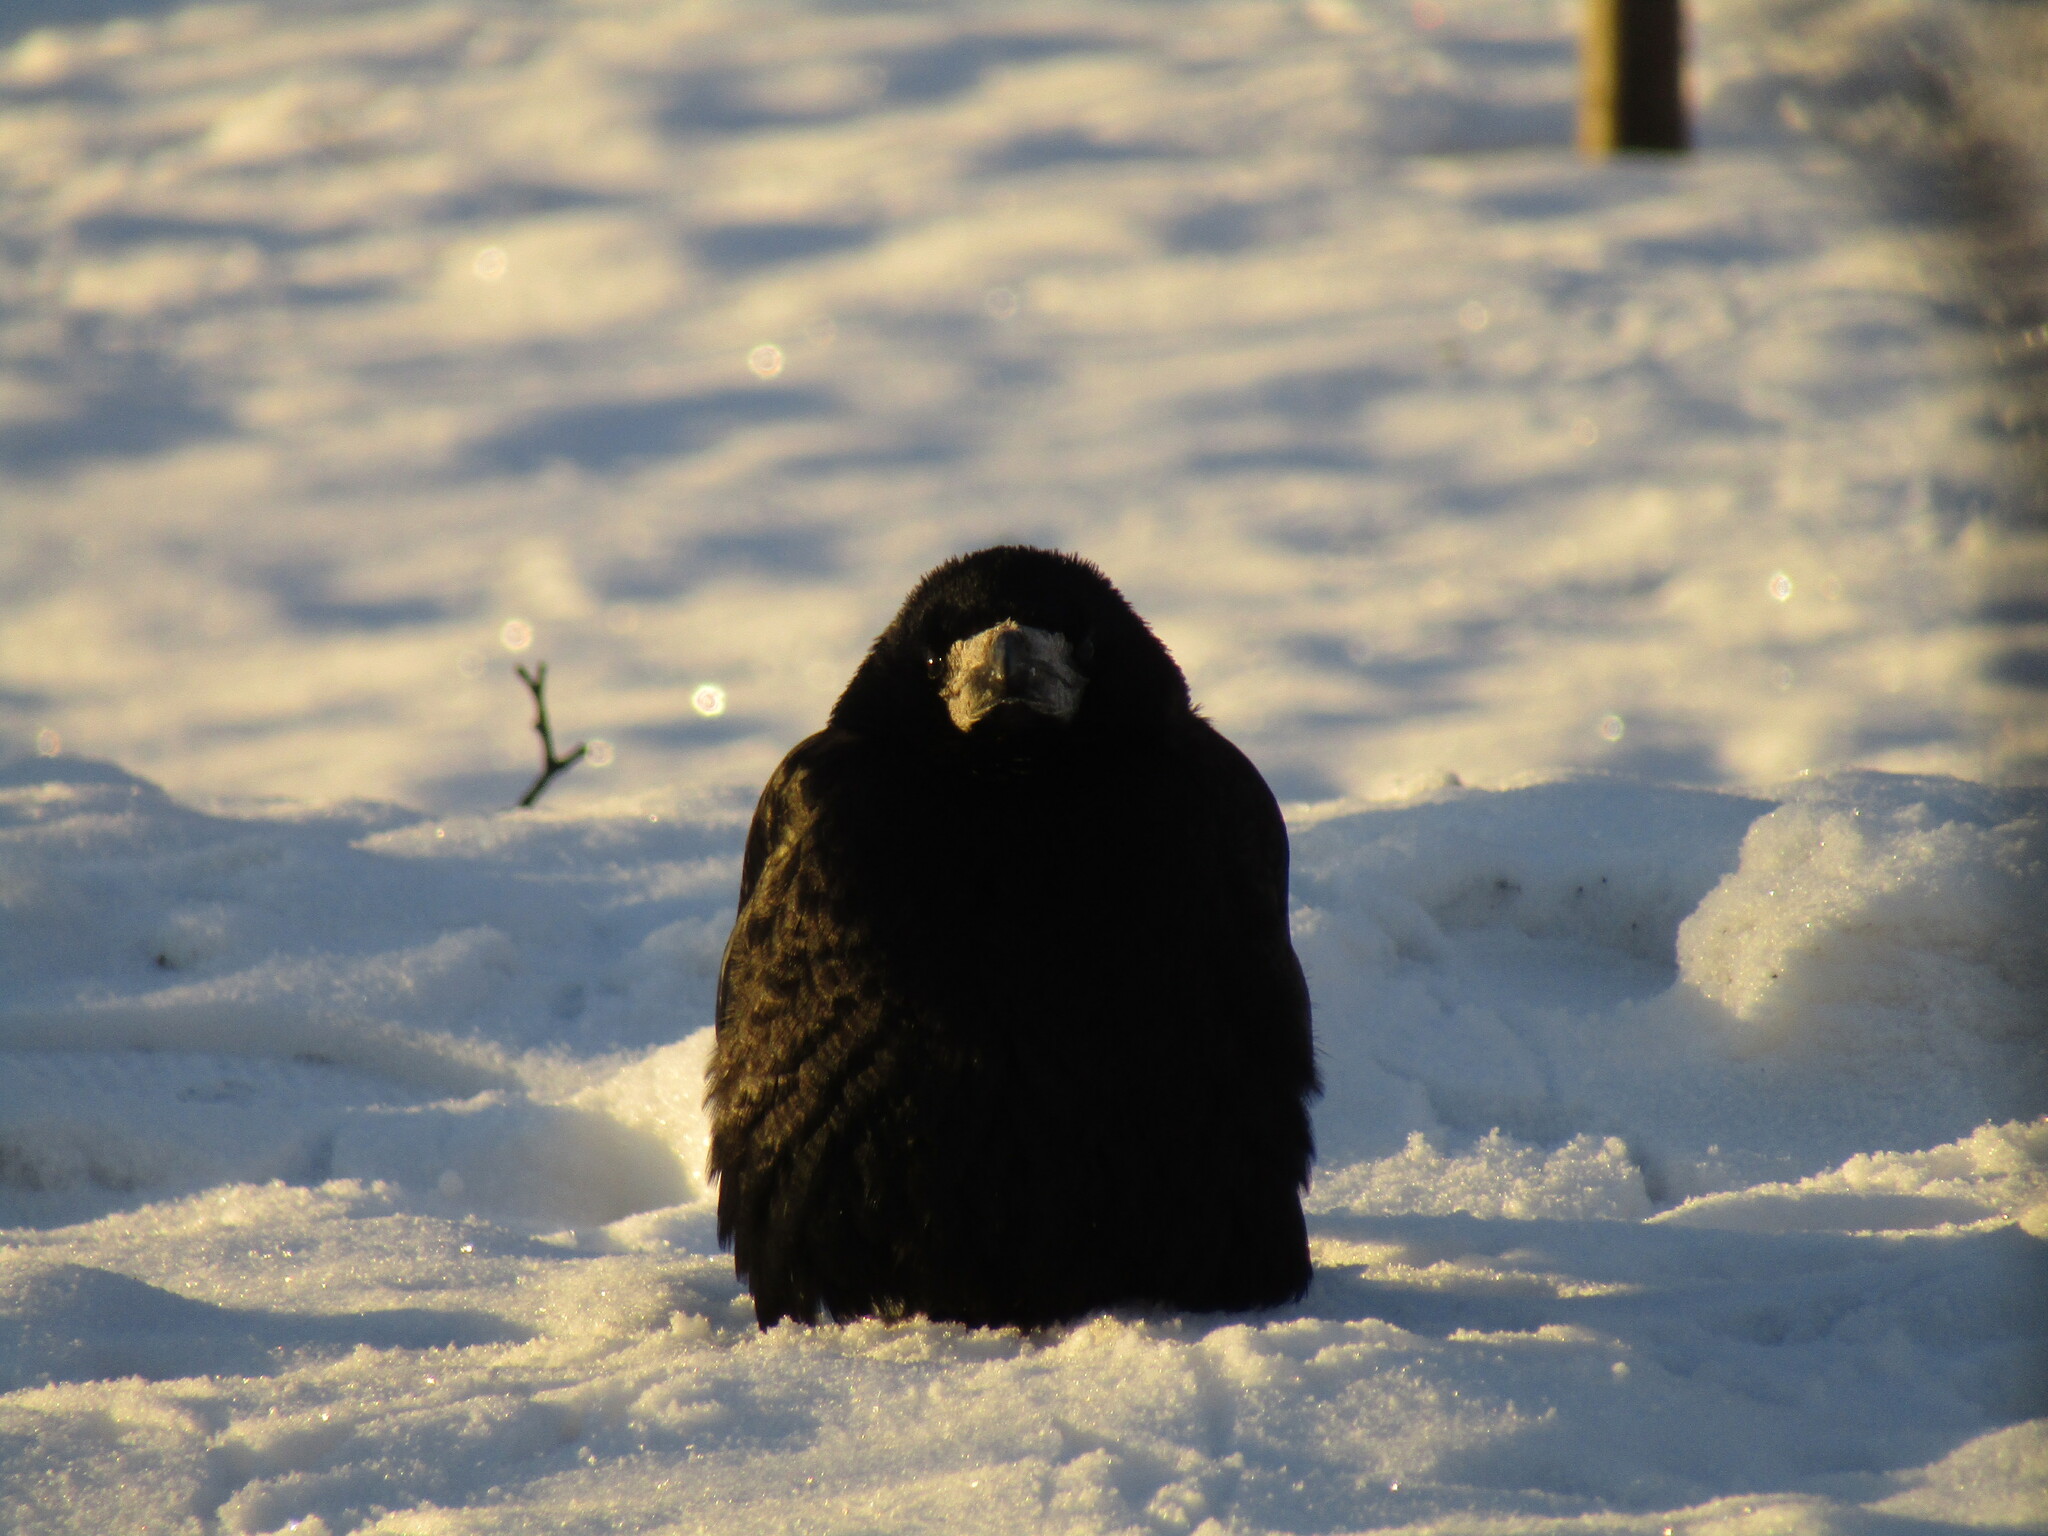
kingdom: Animalia
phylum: Chordata
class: Aves
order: Passeriformes
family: Corvidae
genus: Corvus
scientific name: Corvus frugilegus
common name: Rook
